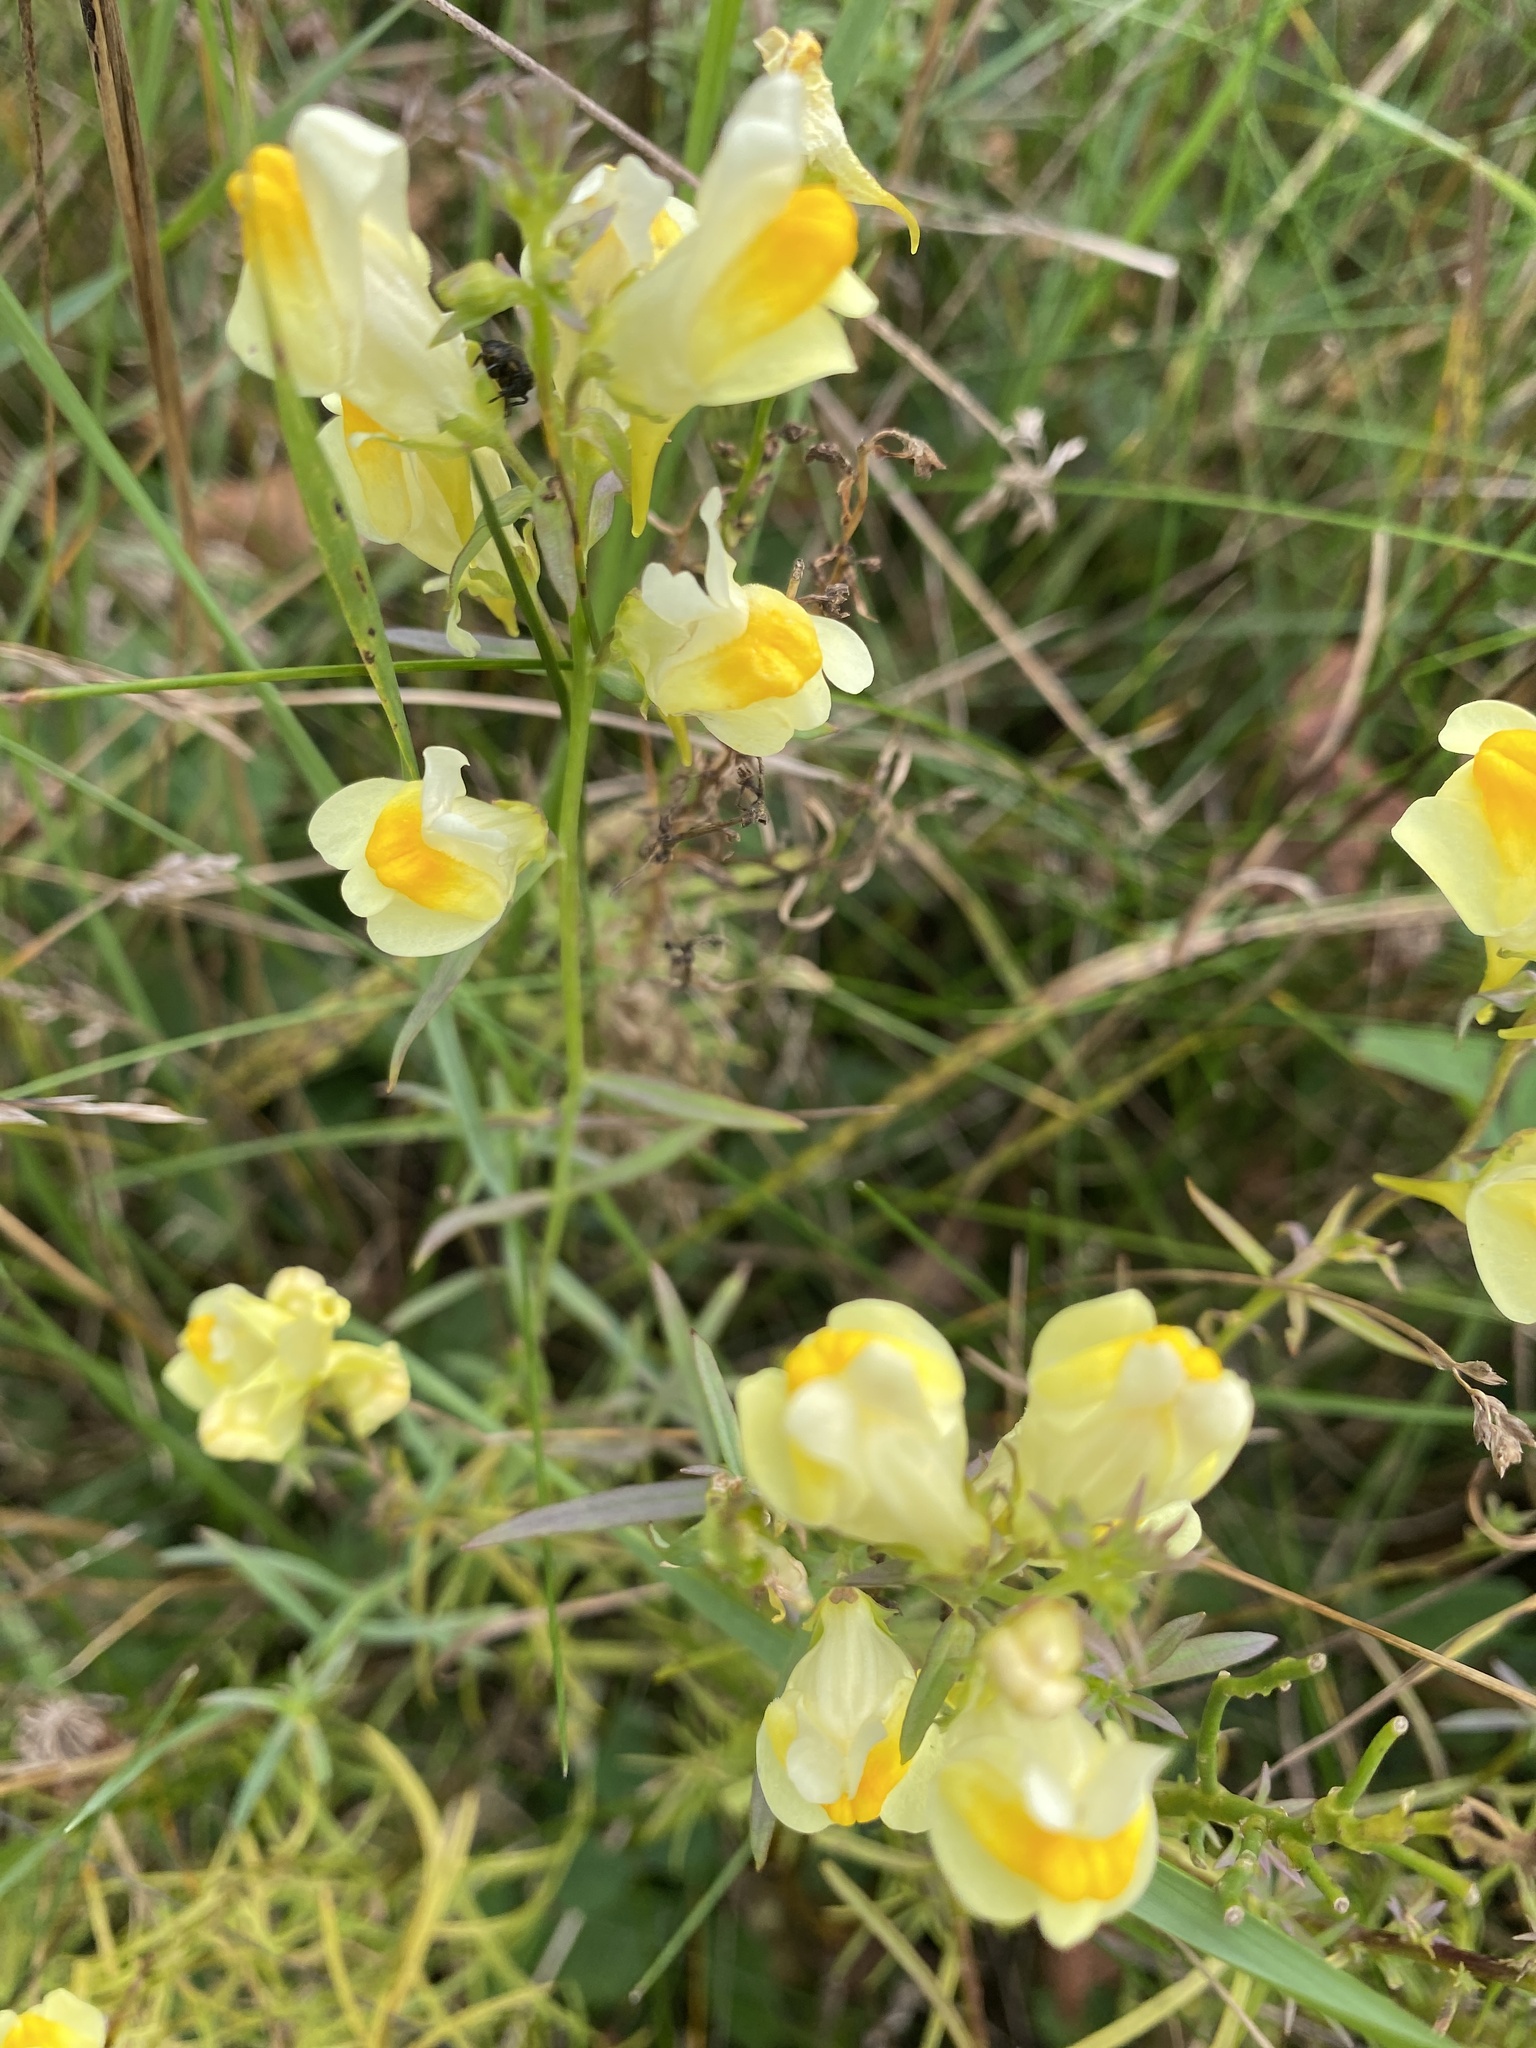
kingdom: Plantae
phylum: Tracheophyta
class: Magnoliopsida
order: Lamiales
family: Plantaginaceae
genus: Linaria
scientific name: Linaria vulgaris
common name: Butter and eggs
